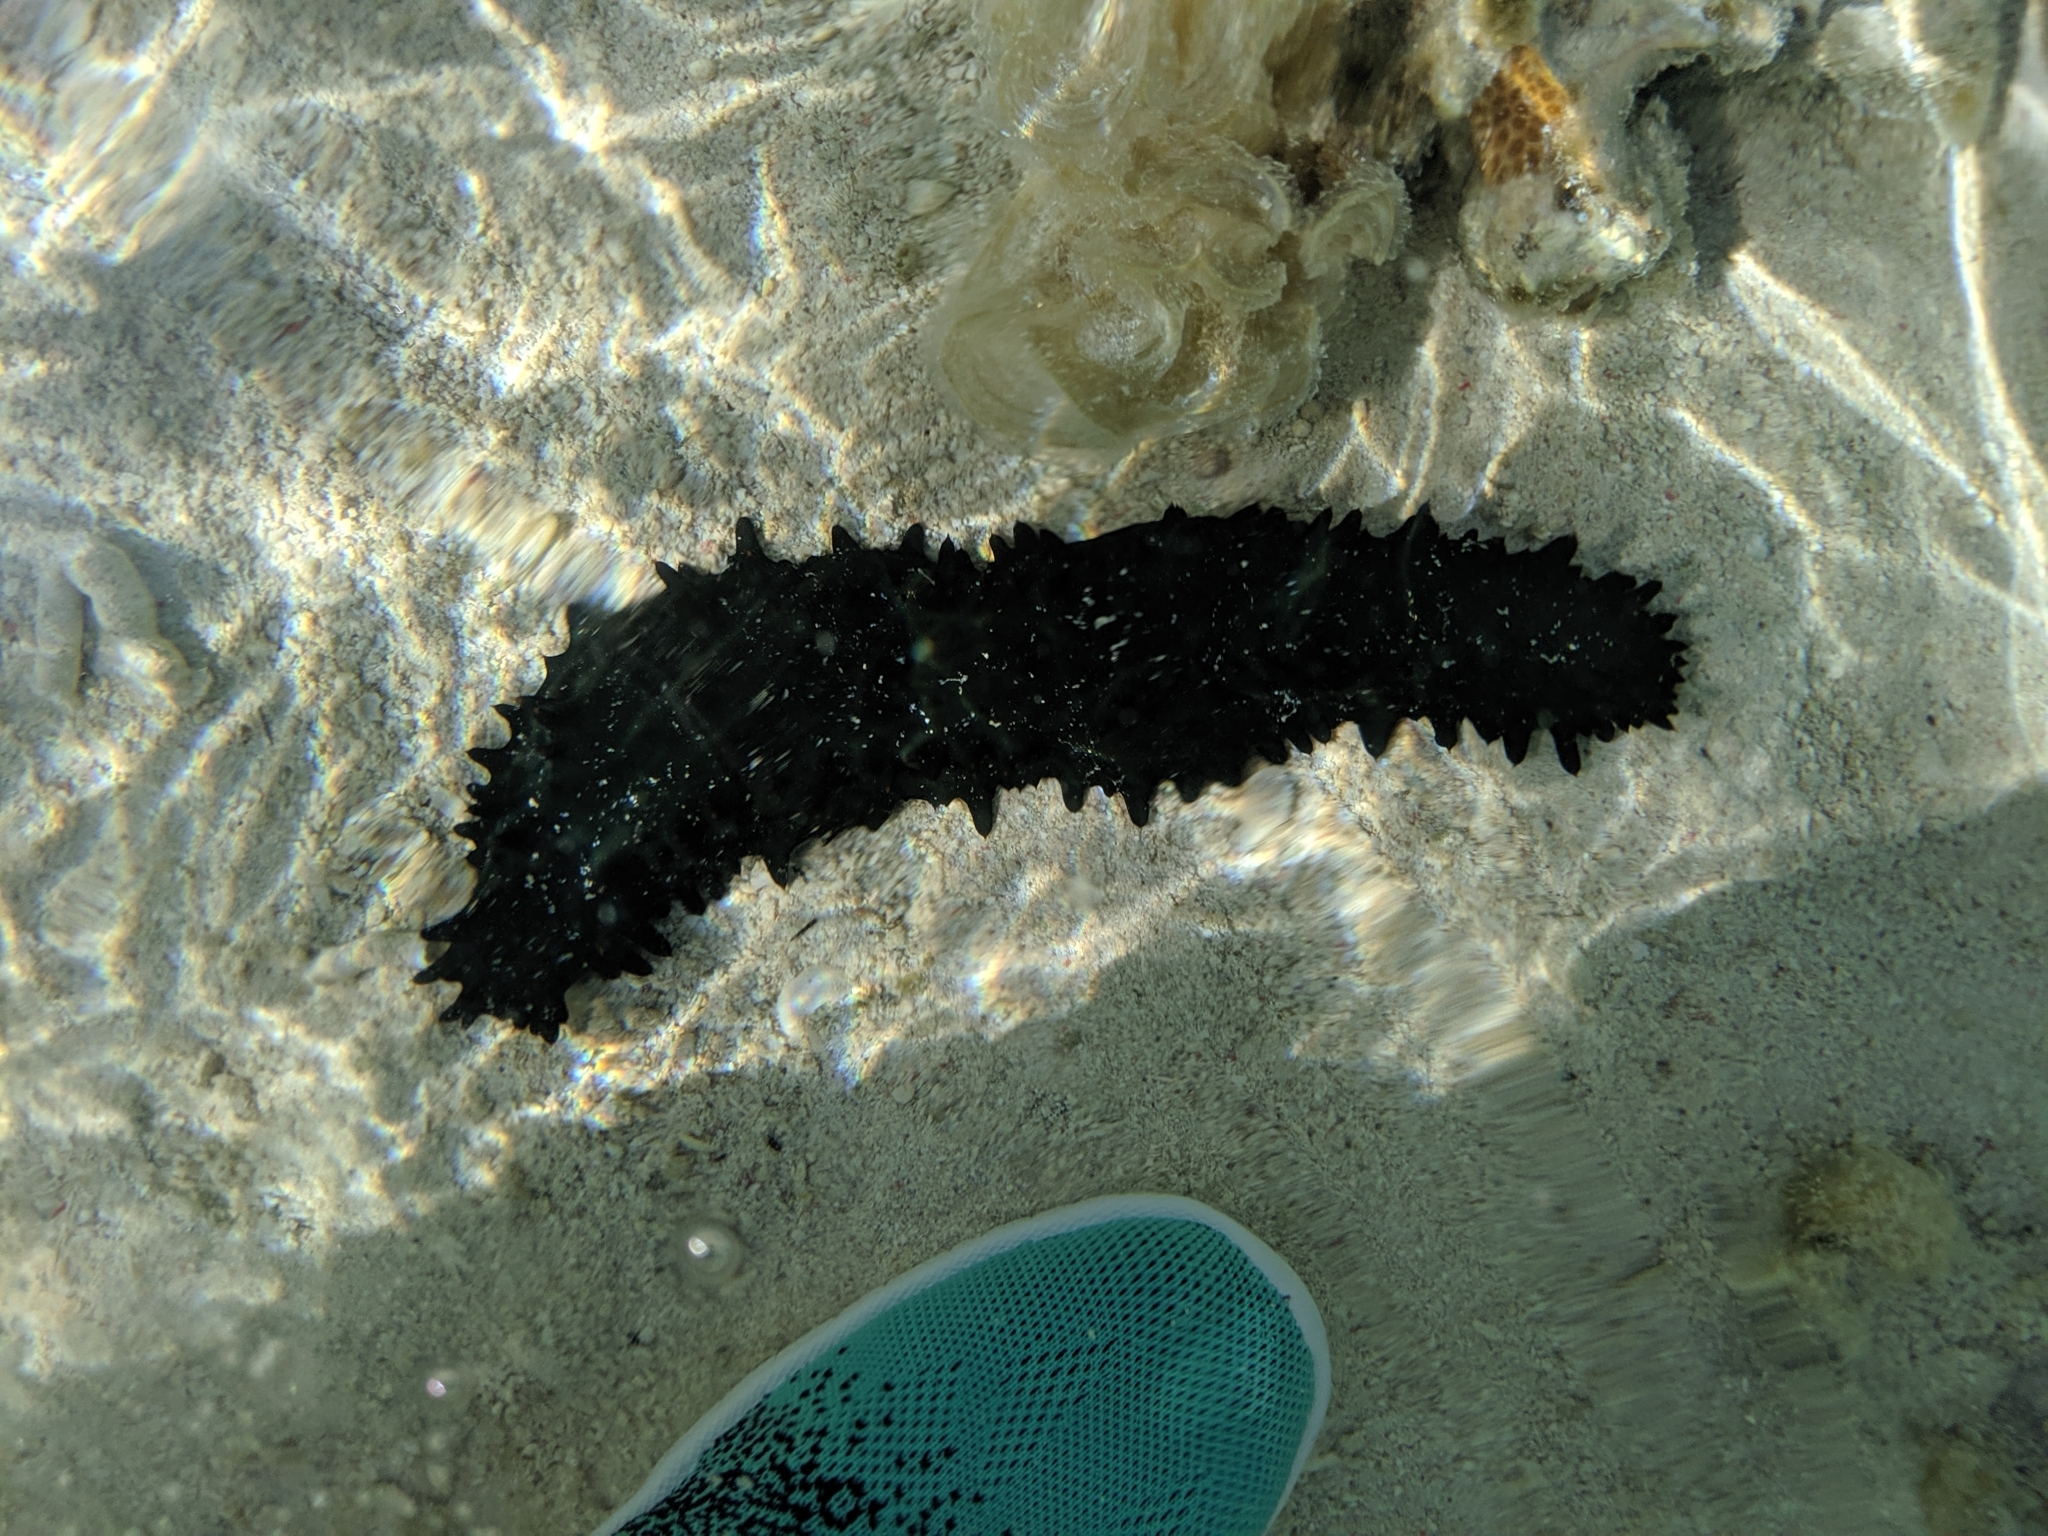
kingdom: Animalia
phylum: Echinodermata
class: Holothuroidea
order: Synallactida
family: Stichopodidae
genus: Stichopus
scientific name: Stichopus chloronotus
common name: Greenfish
